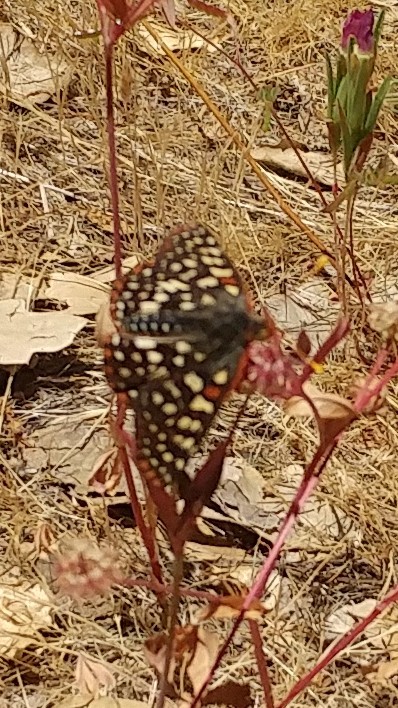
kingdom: Animalia
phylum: Arthropoda
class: Insecta
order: Lepidoptera
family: Nymphalidae
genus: Occidryas
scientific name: Occidryas chalcedona
